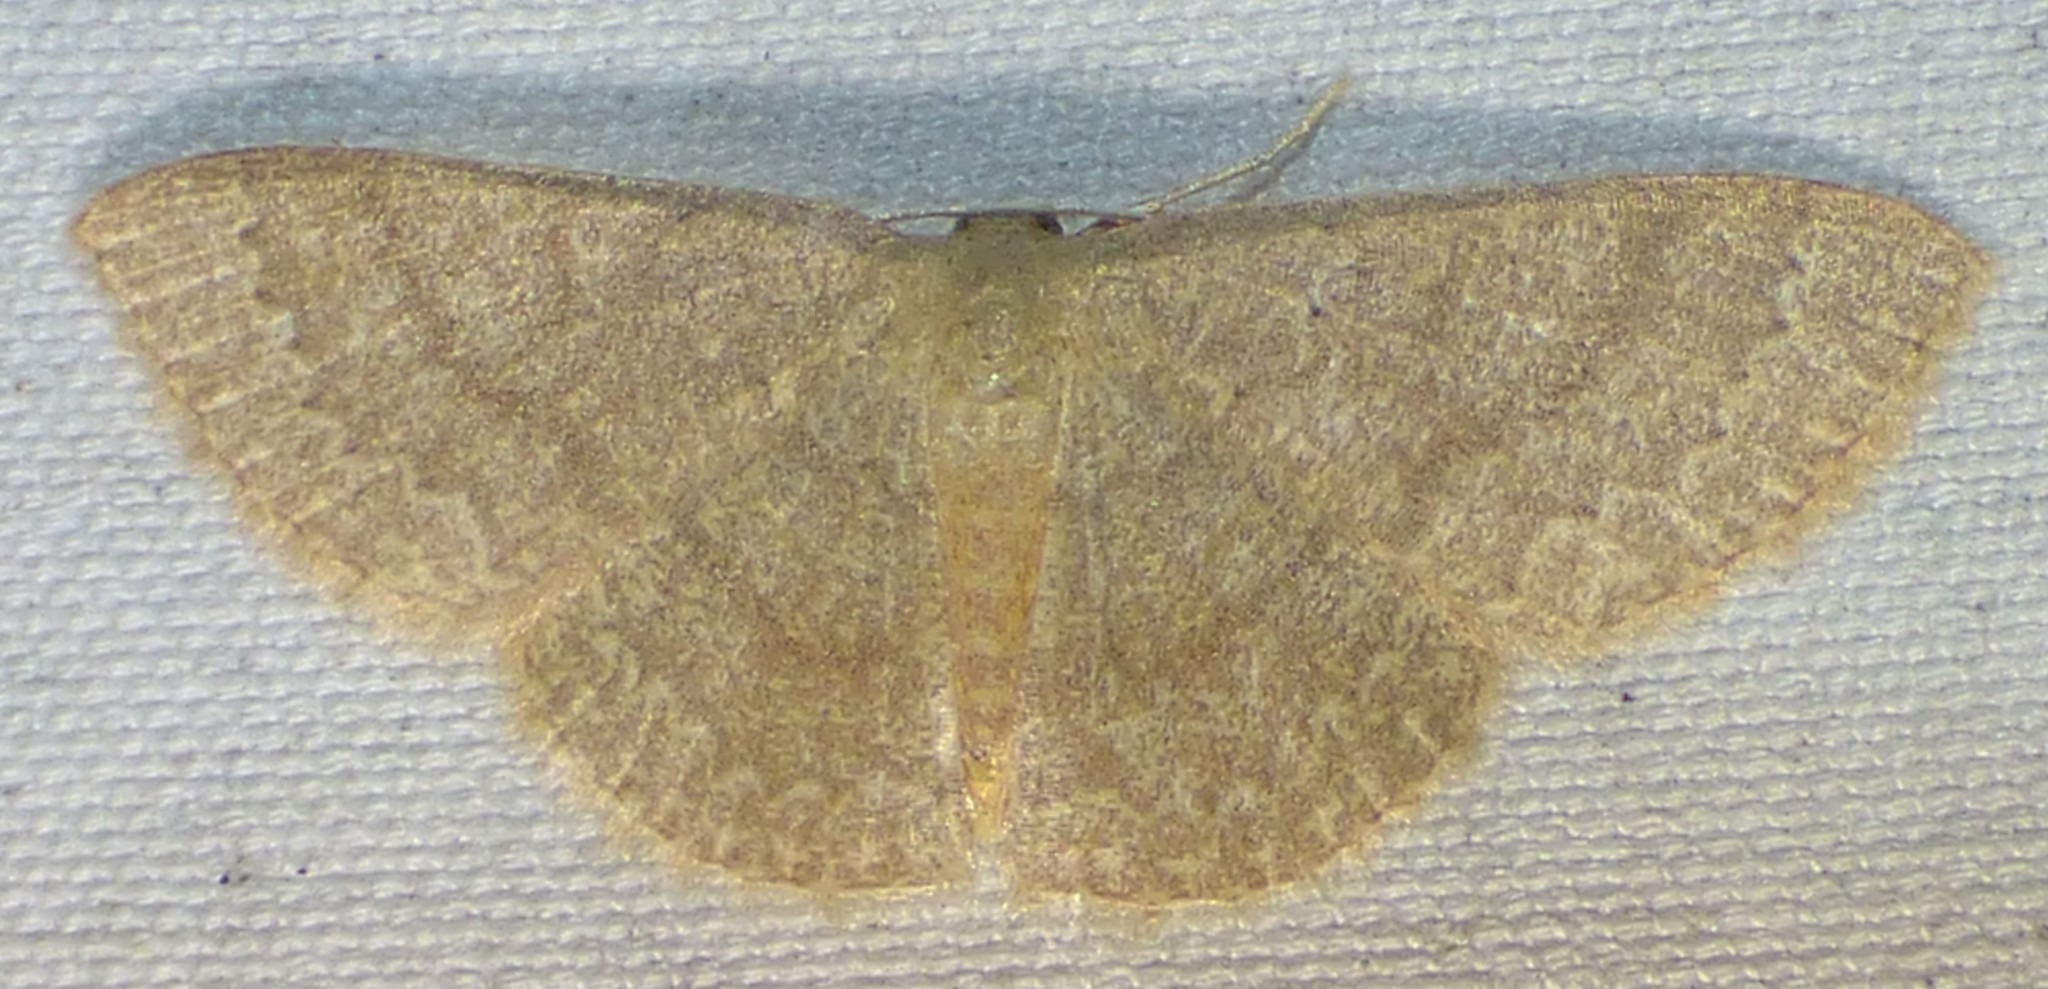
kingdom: Animalia
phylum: Arthropoda
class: Insecta
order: Lepidoptera
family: Geometridae
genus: Pleuroprucha
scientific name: Pleuroprucha insulsaria
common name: Common tan wave
